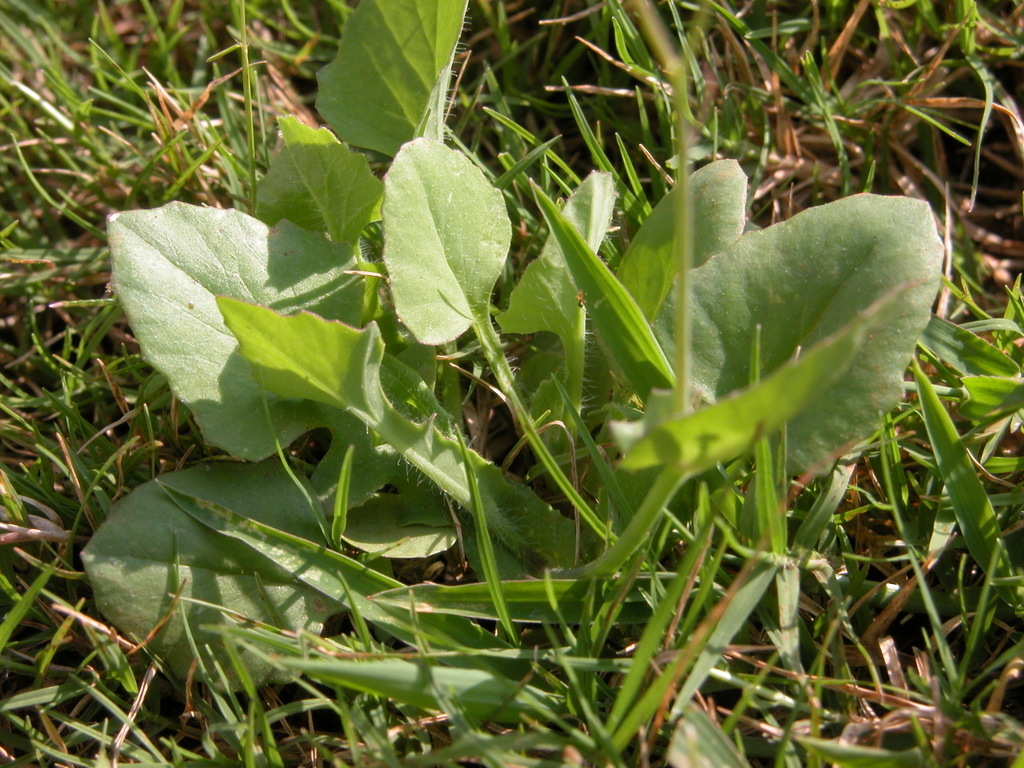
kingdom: Plantae
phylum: Tracheophyta
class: Magnoliopsida
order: Asterales
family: Asteraceae
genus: Emilia
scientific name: Emilia sonchifolia
